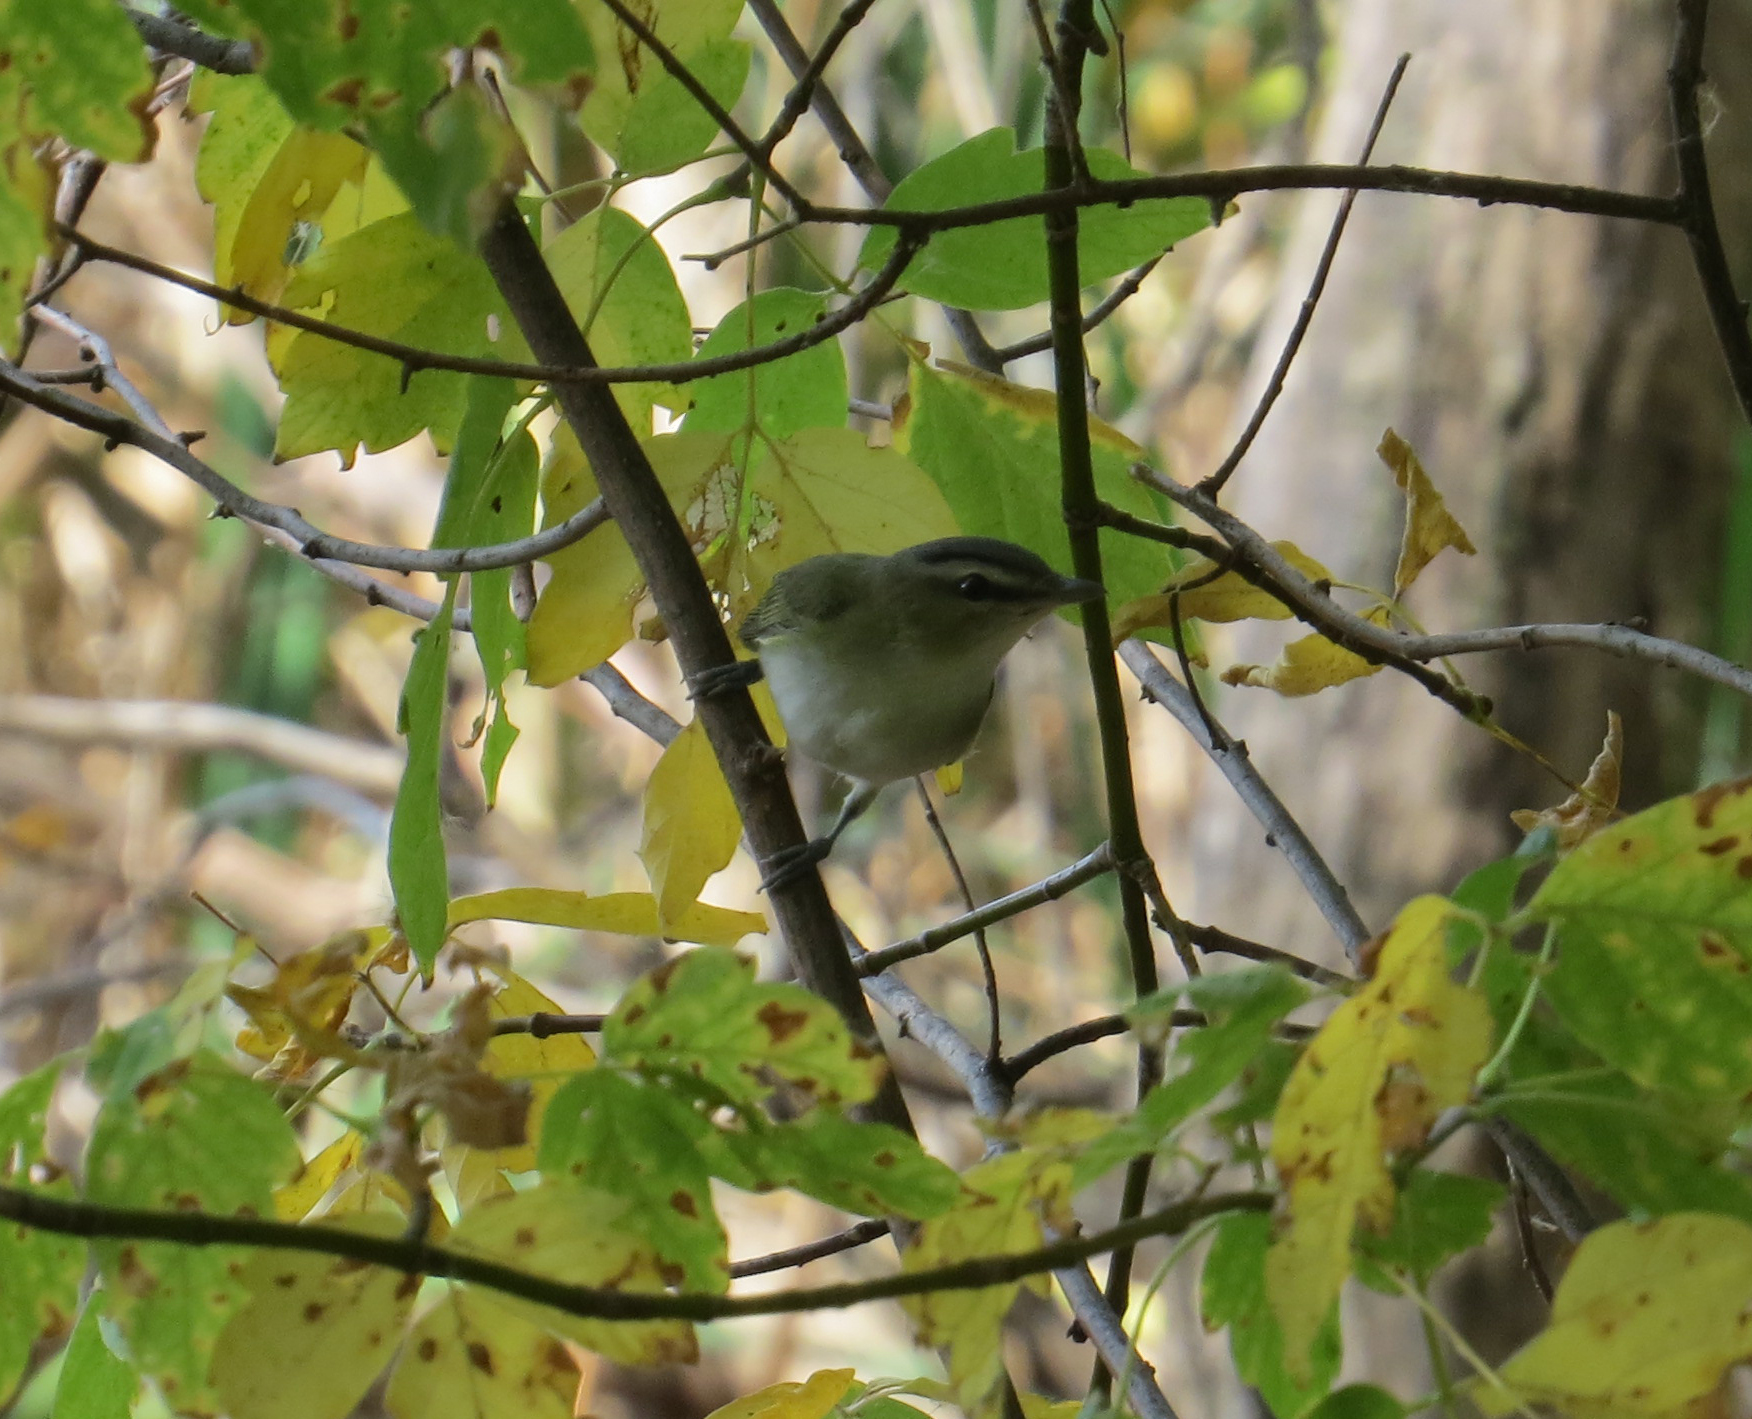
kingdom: Animalia
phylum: Chordata
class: Aves
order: Passeriformes
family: Vireonidae
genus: Vireo
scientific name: Vireo olivaceus
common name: Red-eyed vireo
